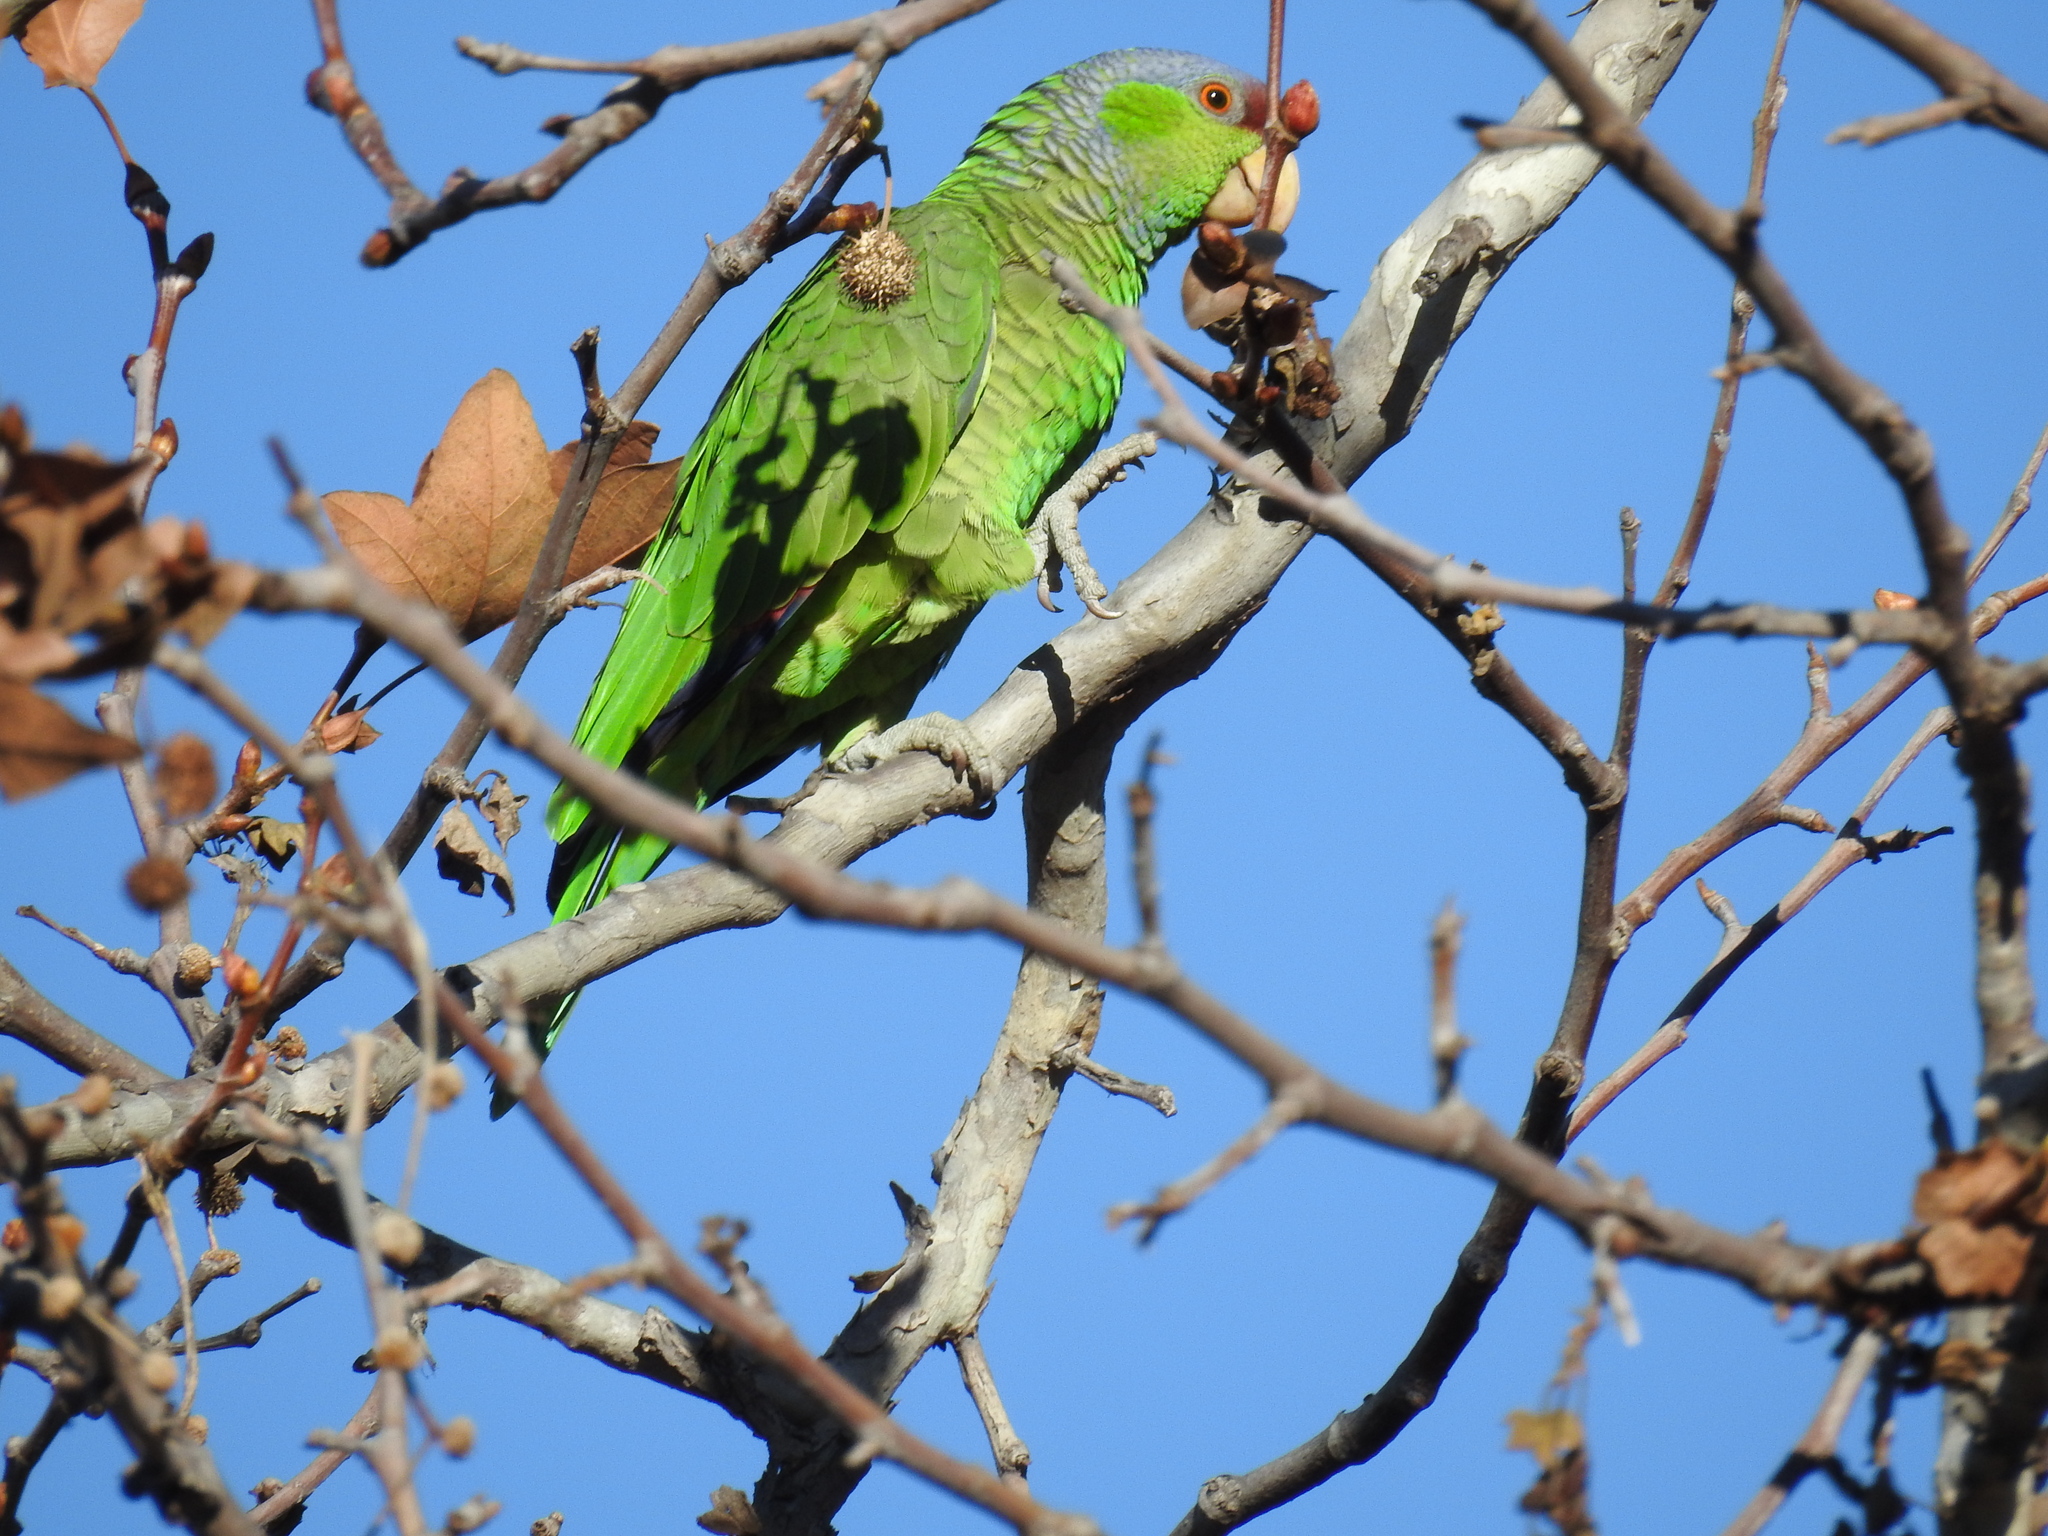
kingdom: Animalia
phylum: Chordata
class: Aves
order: Psittaciformes
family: Psittacidae
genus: Amazona
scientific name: Amazona finschi
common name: Lilac-crowned amazon
